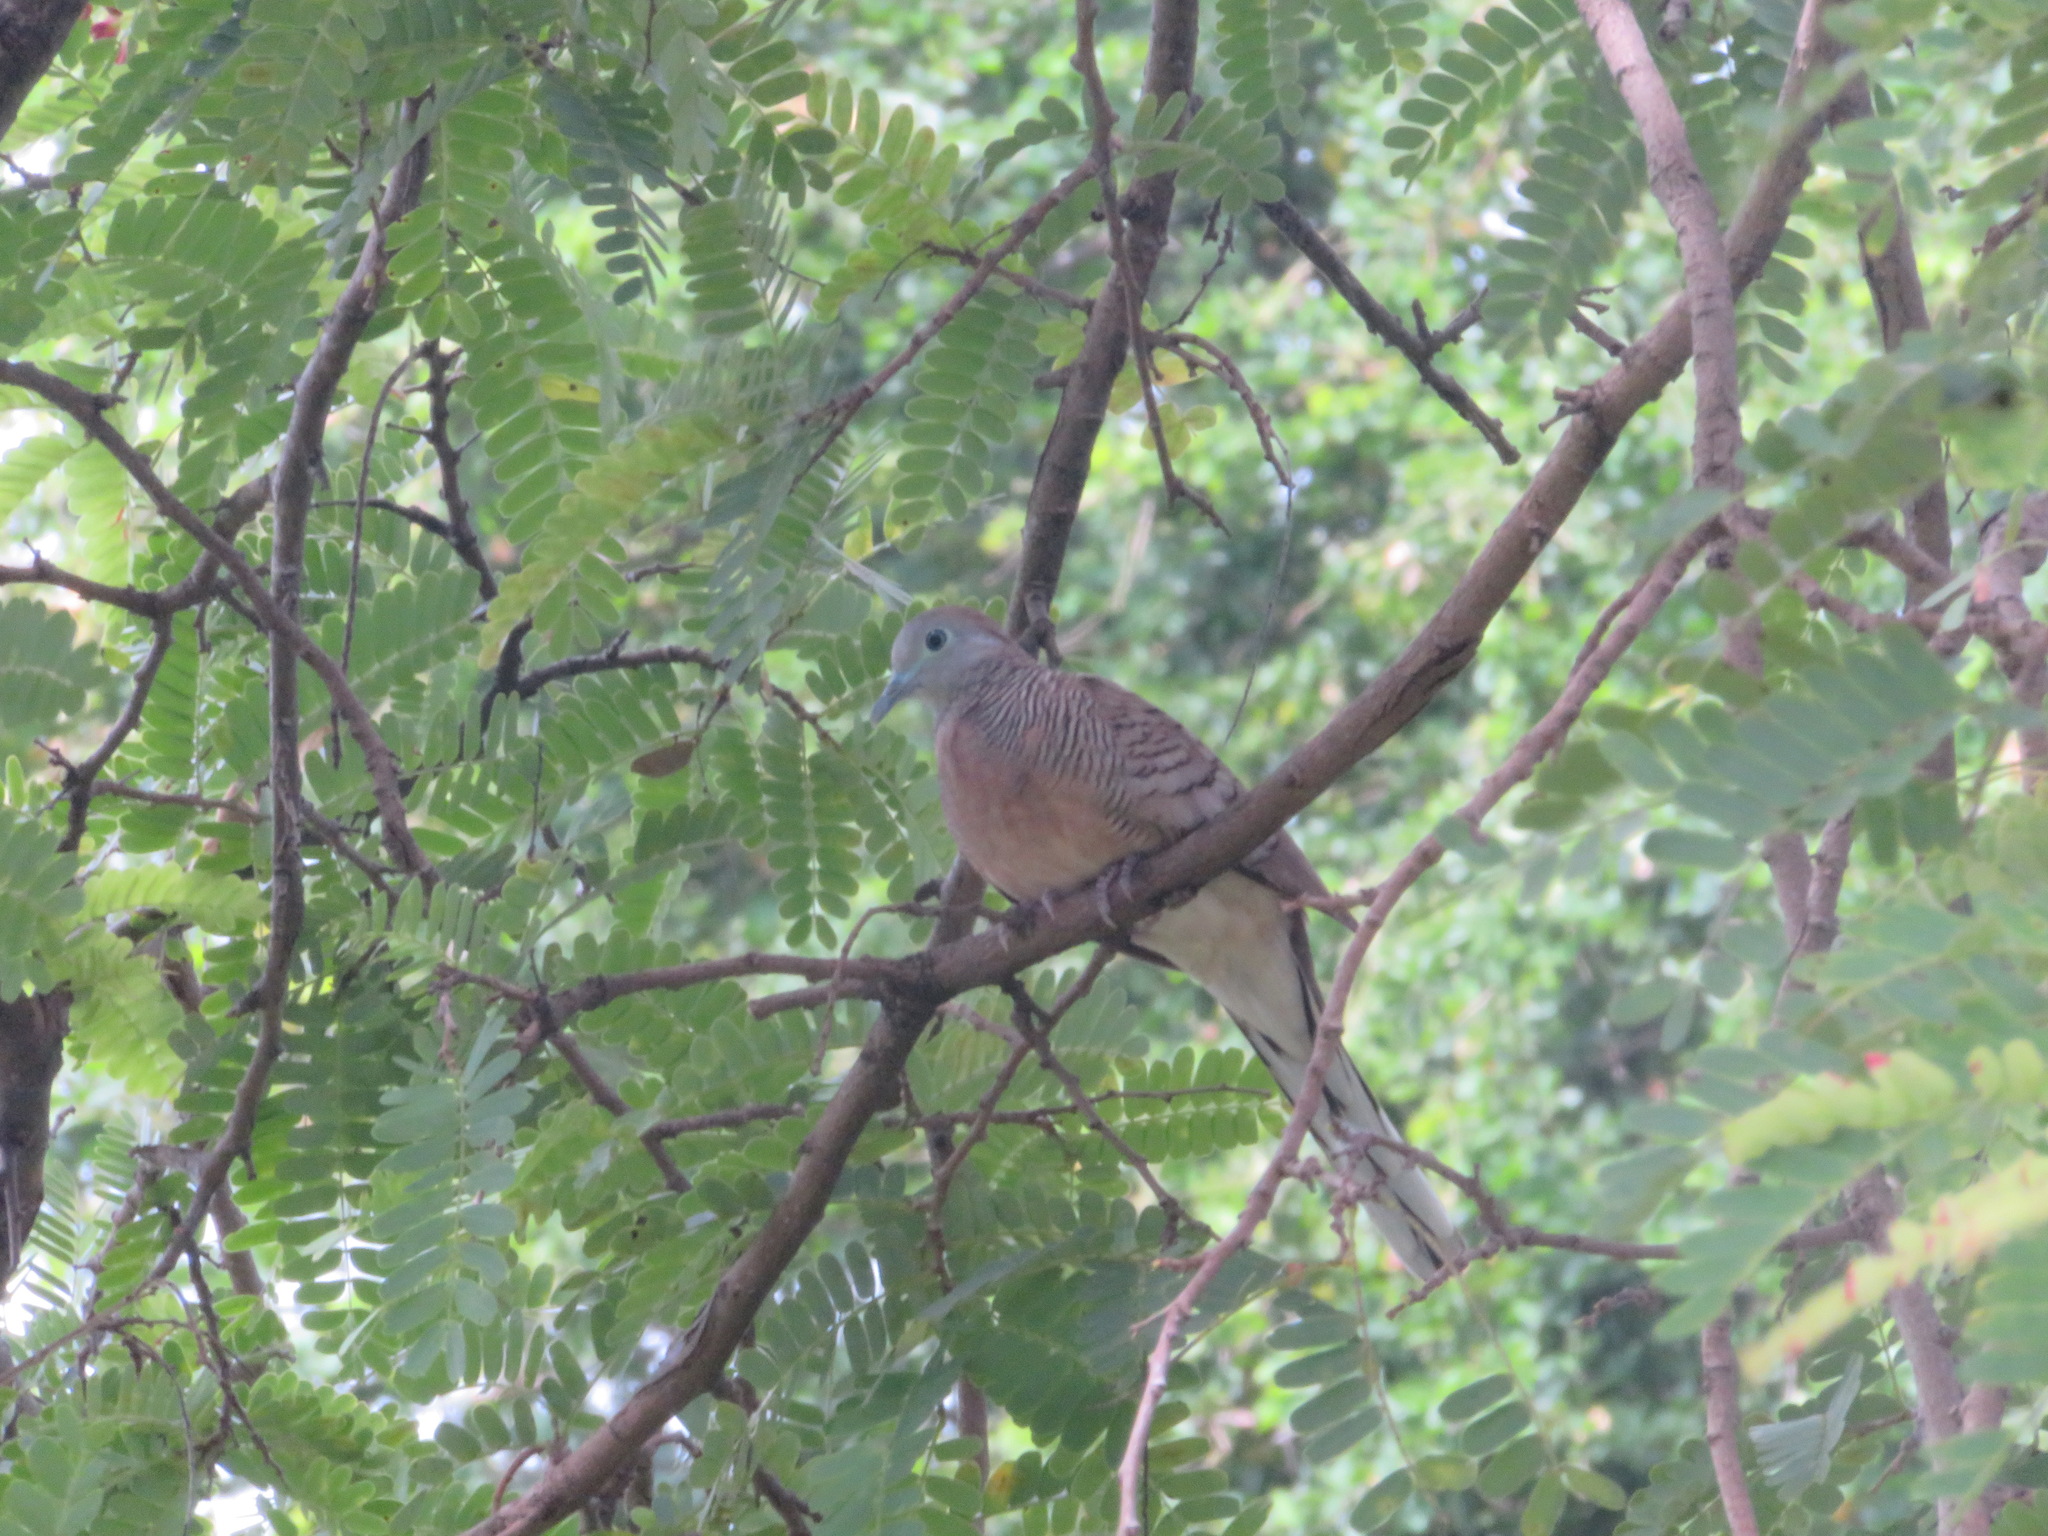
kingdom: Animalia
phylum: Chordata
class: Aves
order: Columbiformes
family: Columbidae
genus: Geopelia
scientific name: Geopelia striata
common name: Zebra dove
